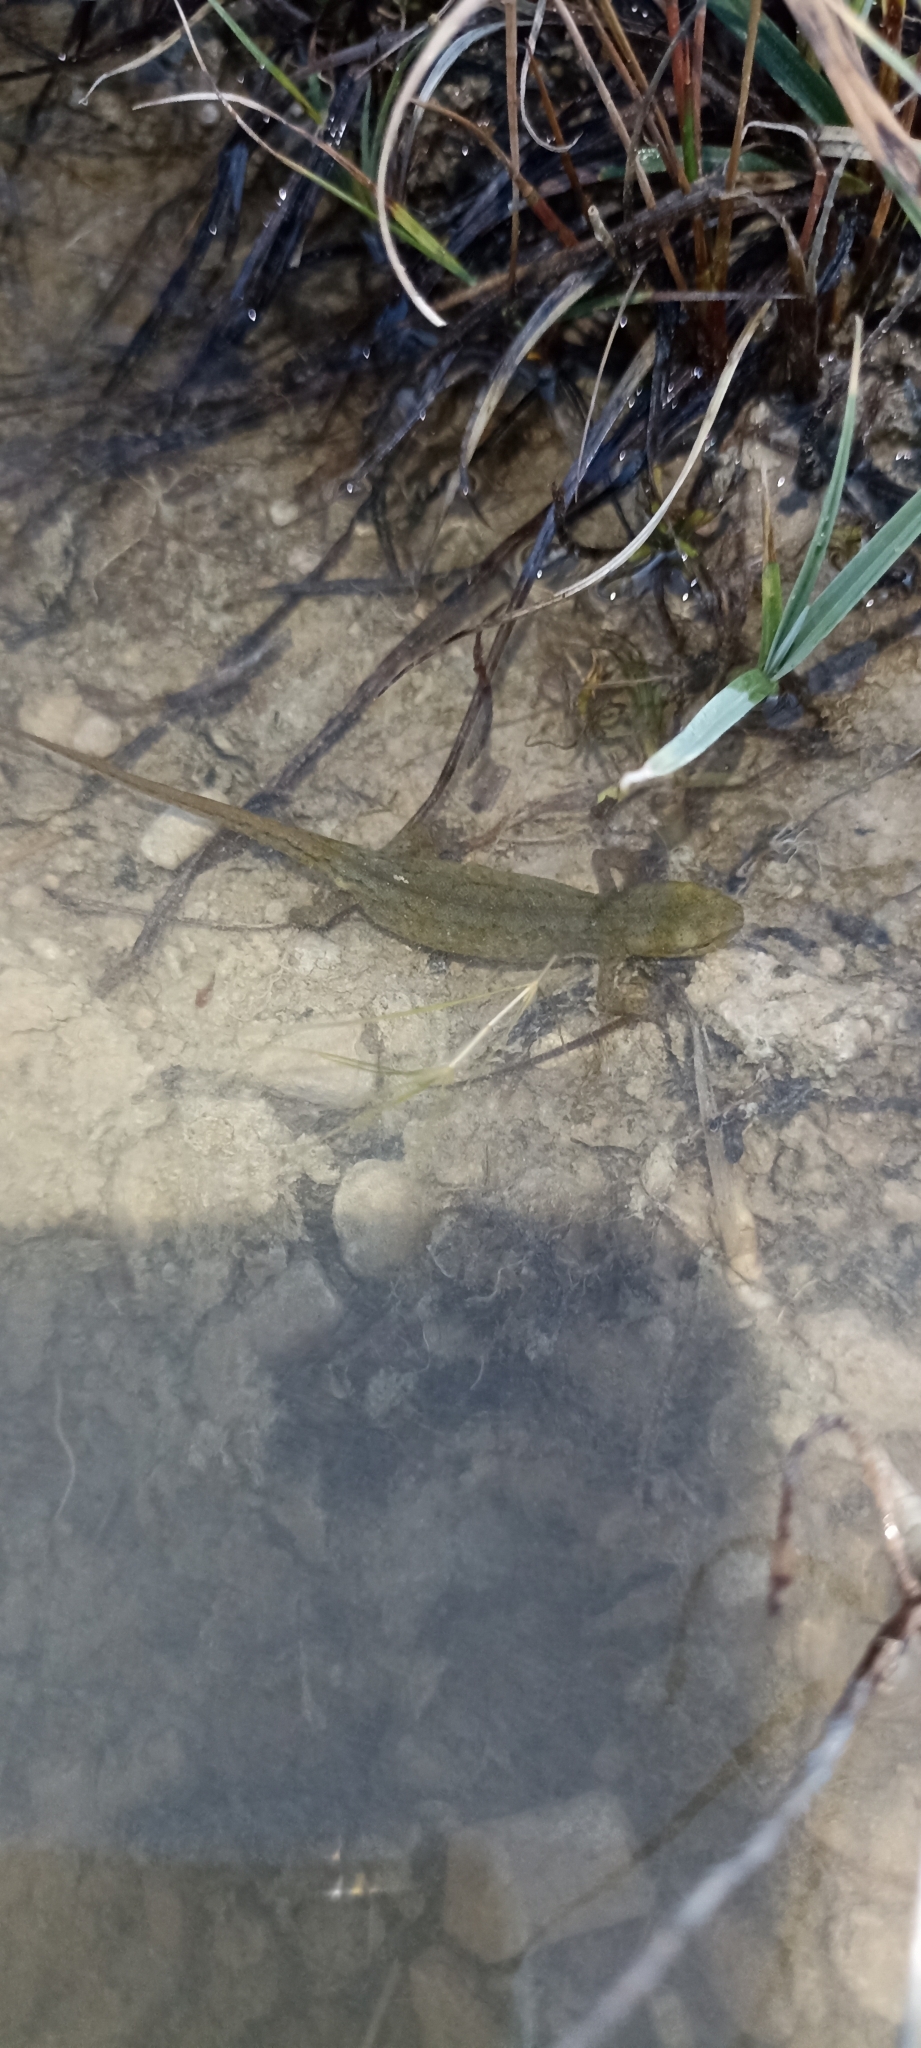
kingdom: Animalia
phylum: Chordata
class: Amphibia
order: Caudata
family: Salamandridae
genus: Lissotriton
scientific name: Lissotriton helveticus
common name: Palmate newt
